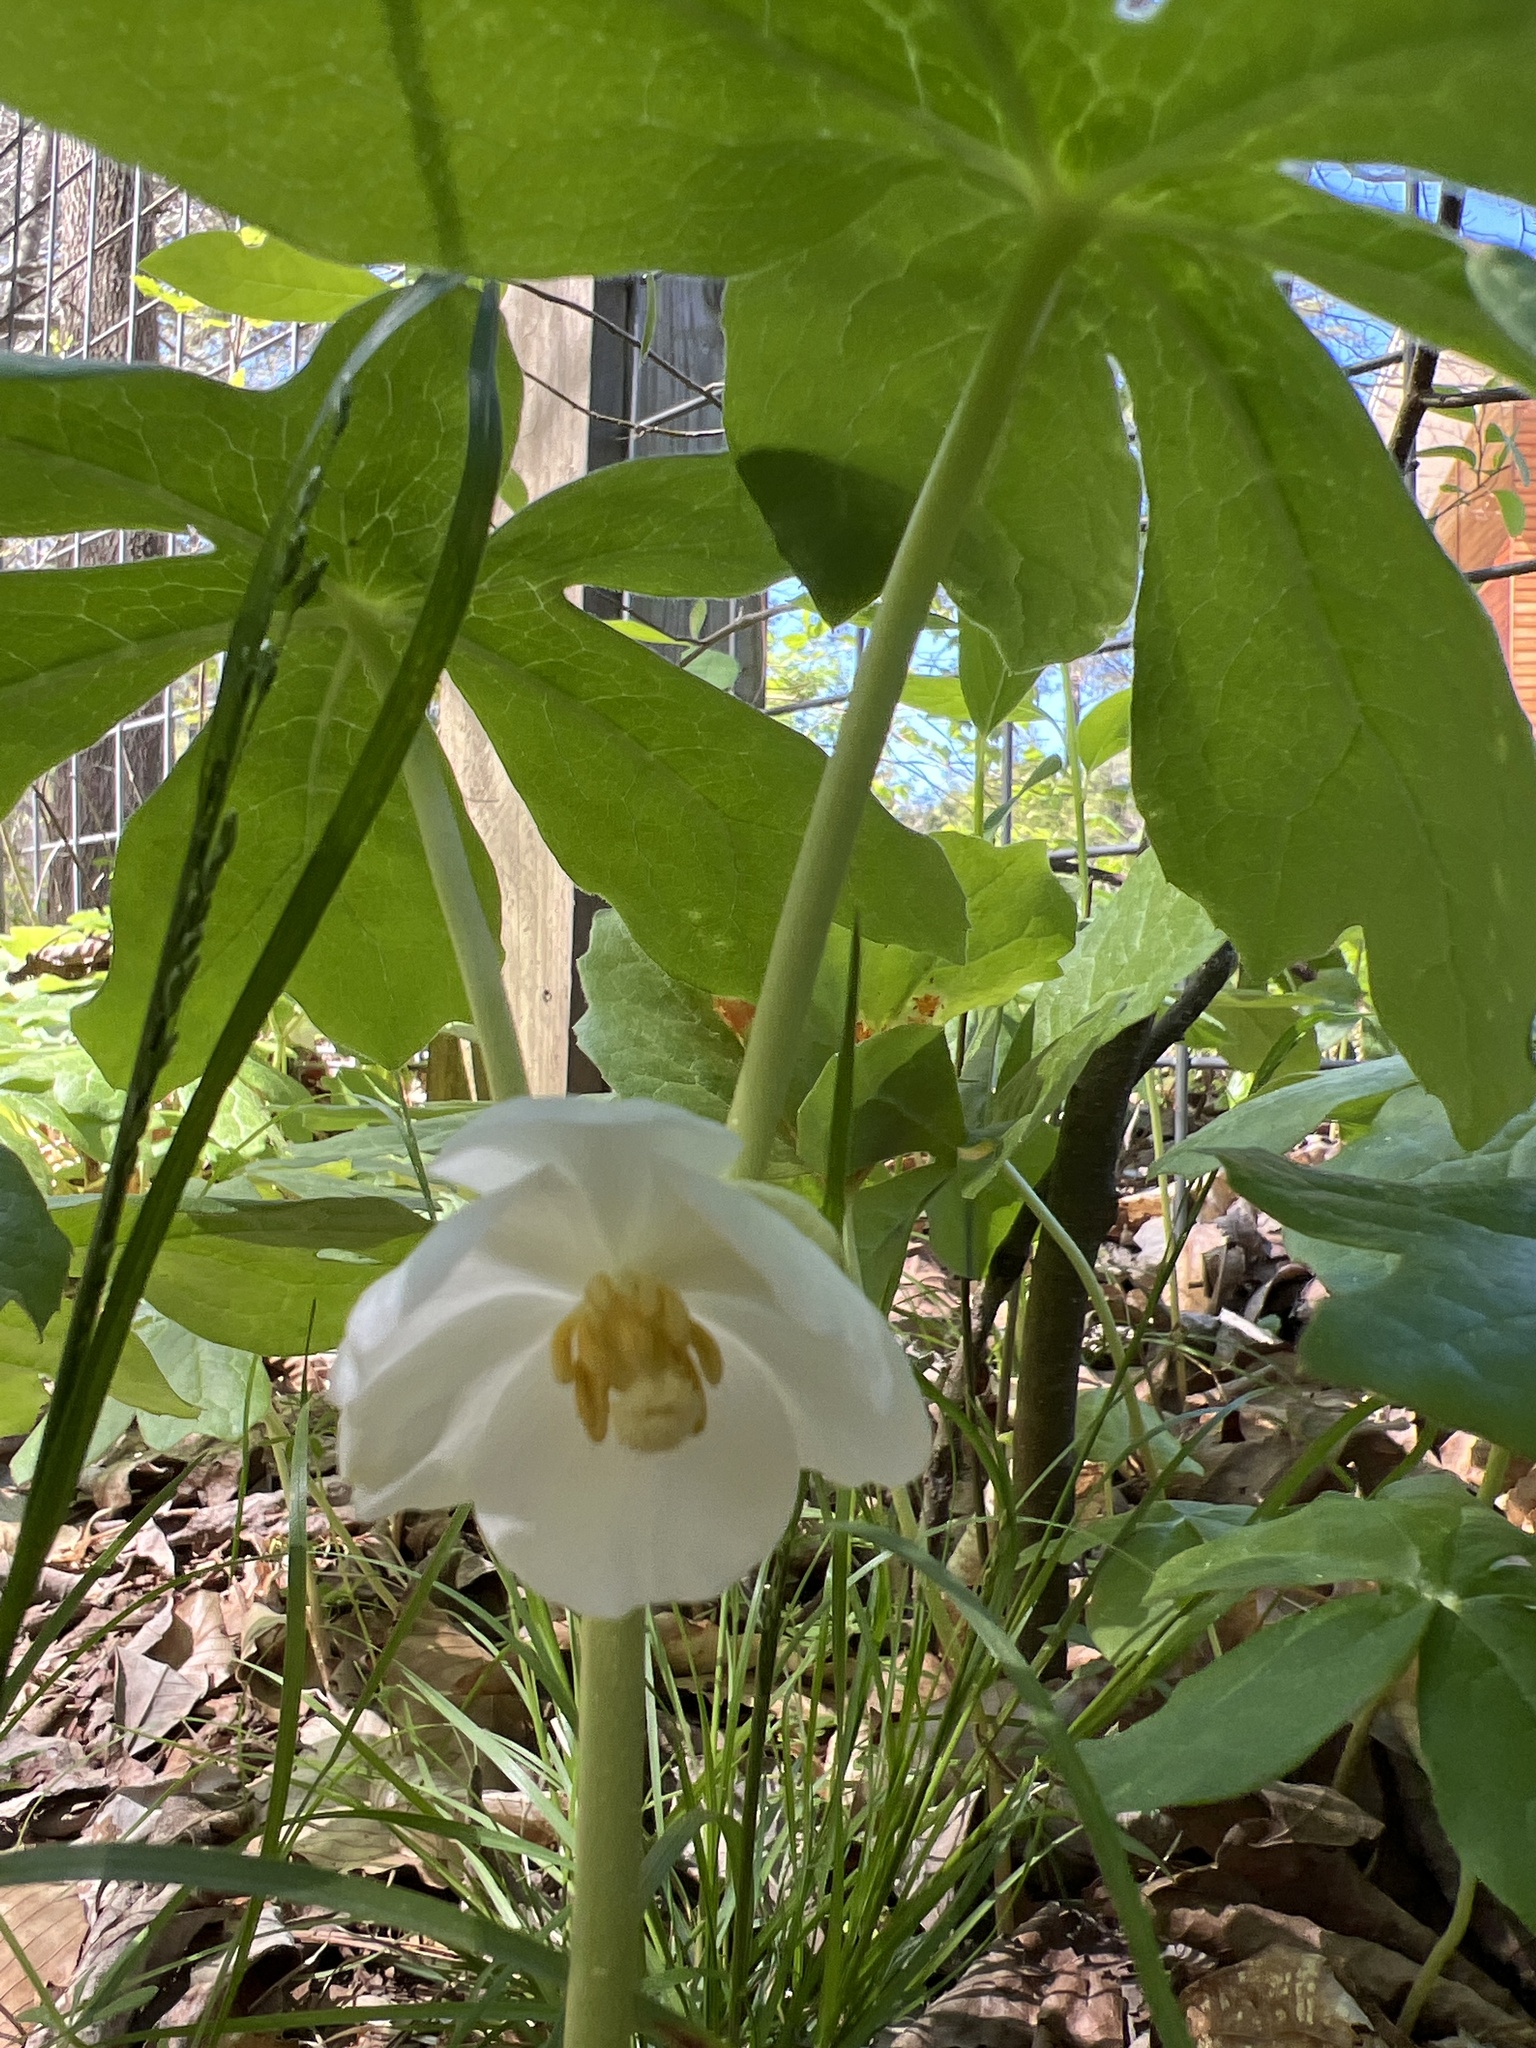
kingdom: Plantae
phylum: Tracheophyta
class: Magnoliopsida
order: Ranunculales
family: Berberidaceae
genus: Podophyllum
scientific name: Podophyllum peltatum
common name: Wild mandrake
